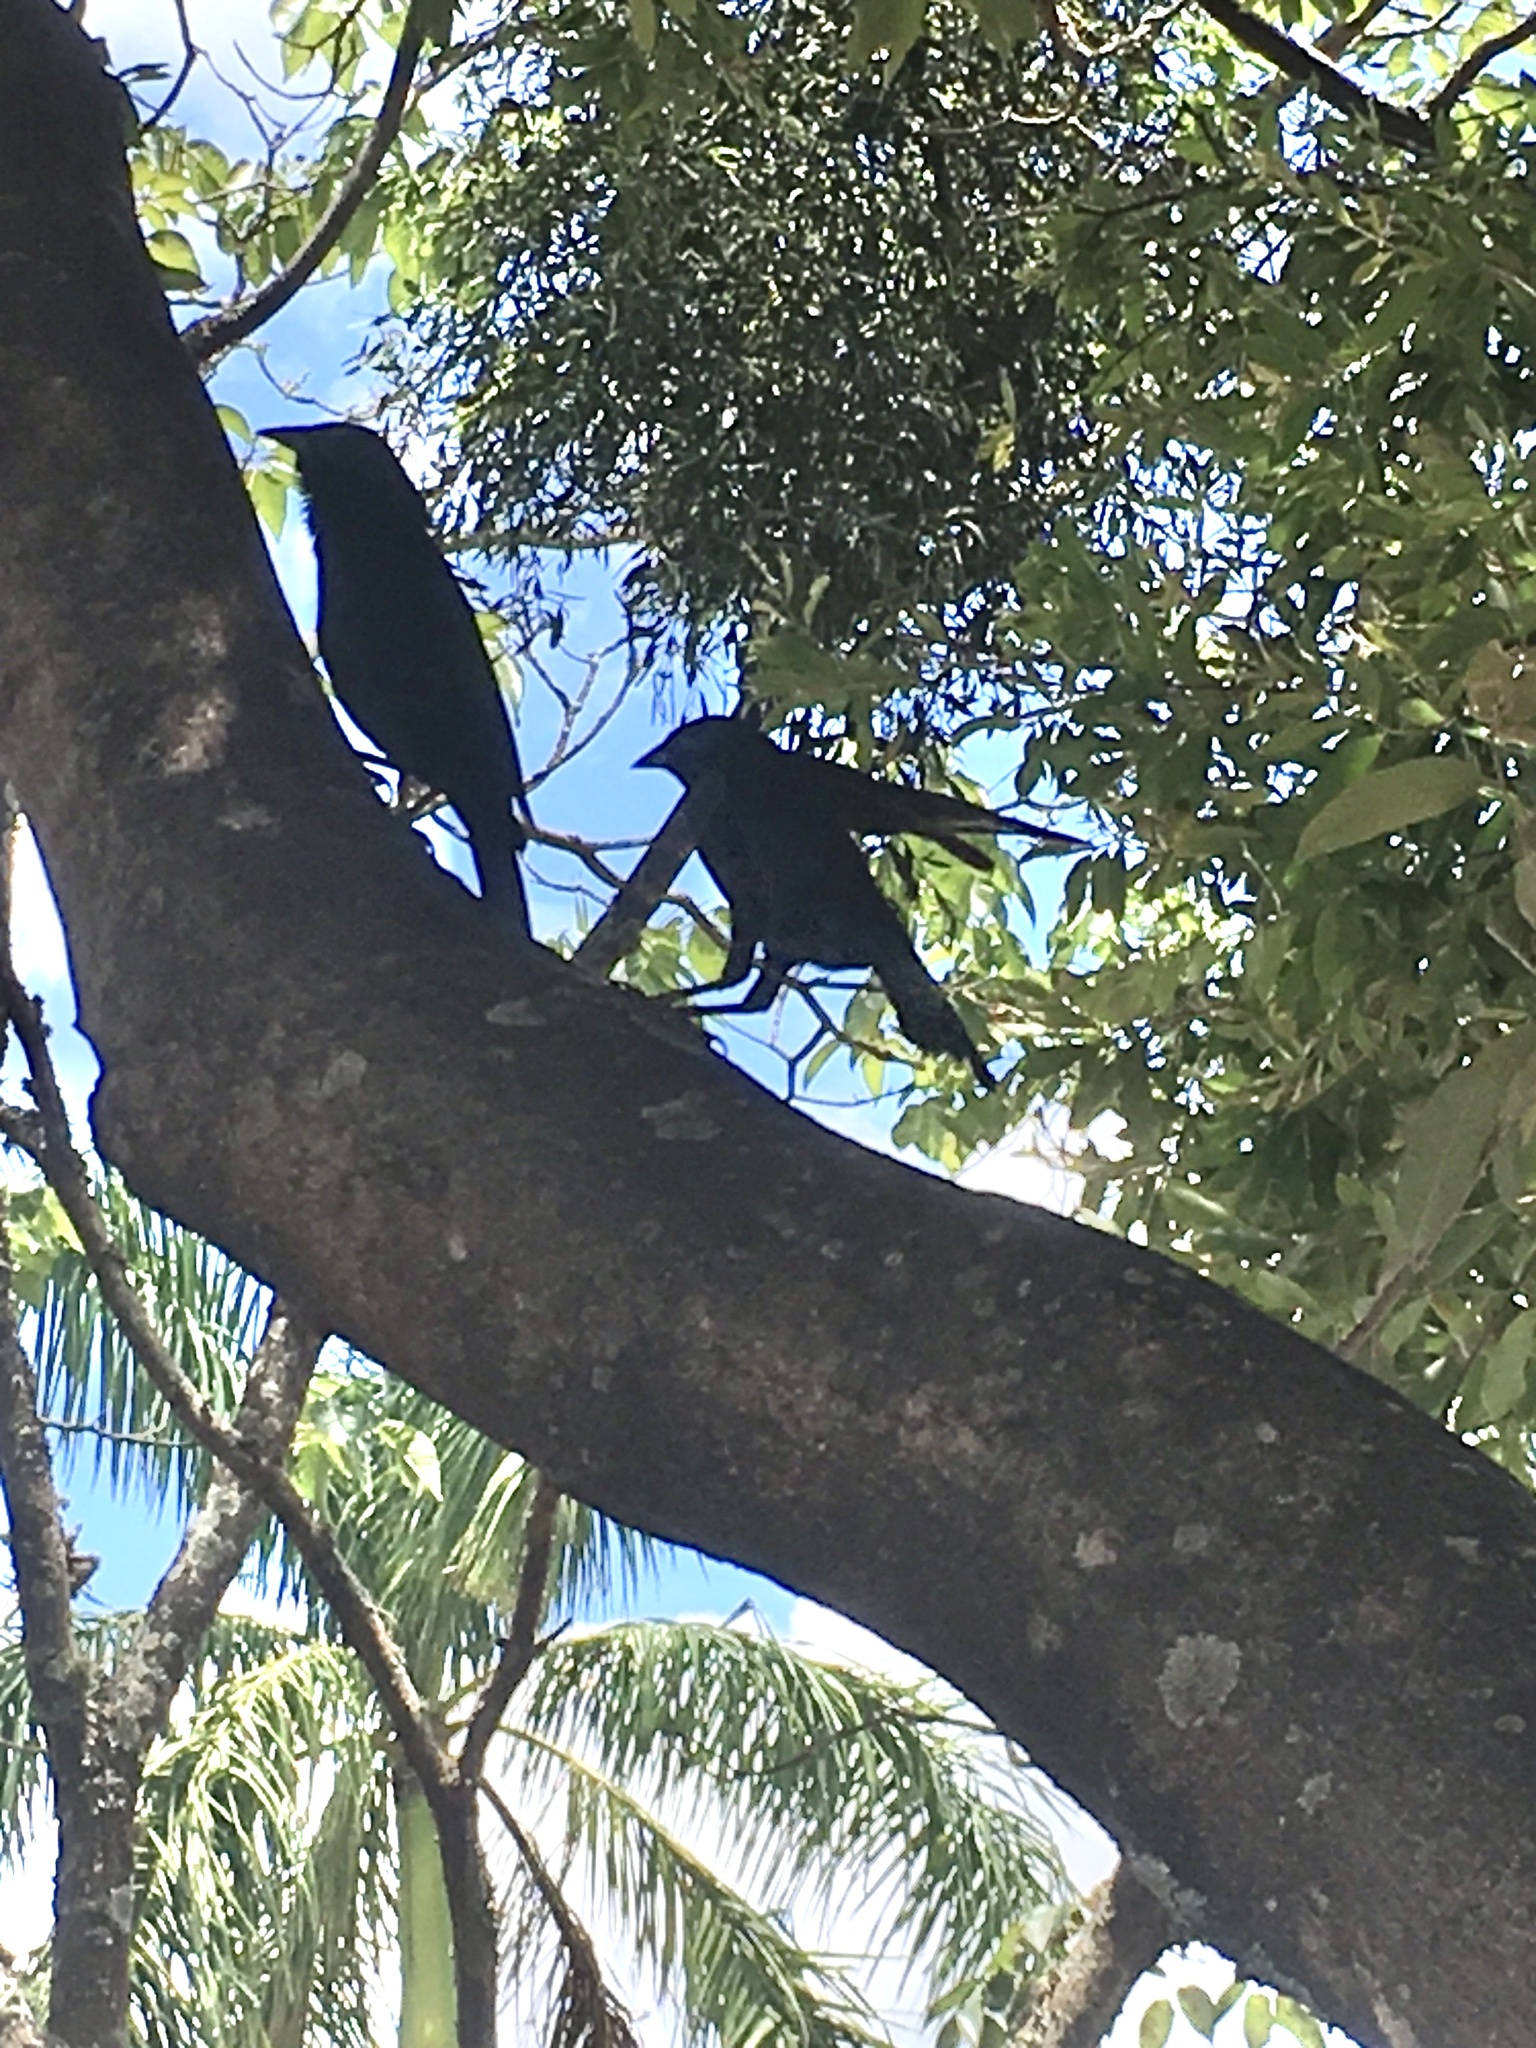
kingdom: Animalia
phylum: Chordata
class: Aves
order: Passeriformes
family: Icteridae
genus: Gnorimopsar
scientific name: Gnorimopsar chopi
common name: Chopi blackbird
